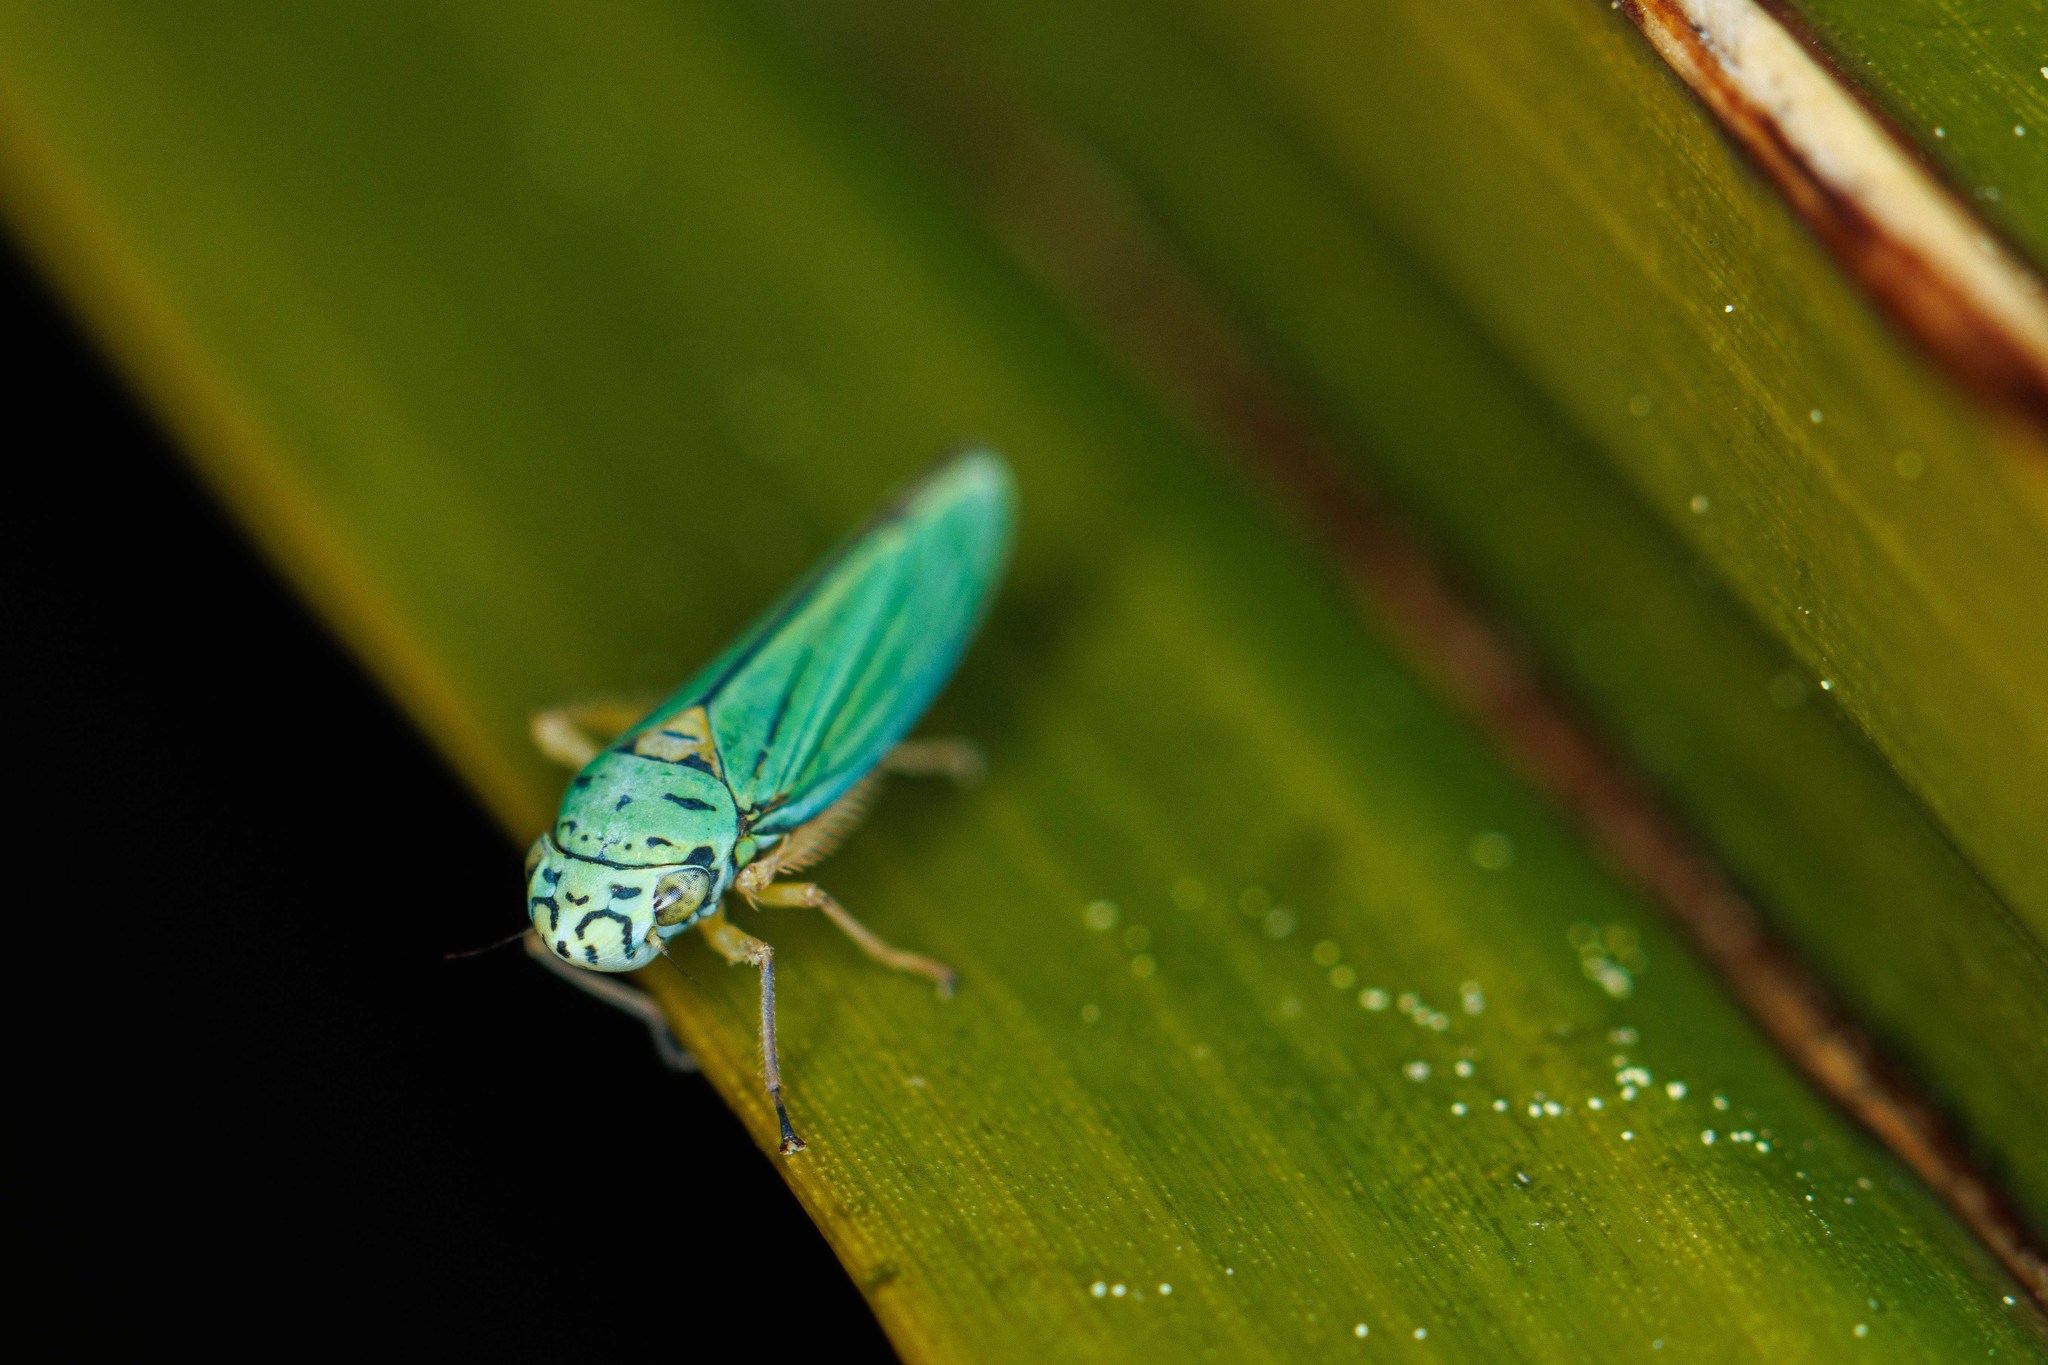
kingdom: Animalia
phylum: Arthropoda
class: Insecta
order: Hemiptera
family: Cicadellidae
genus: Graphocephala
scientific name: Graphocephala atropunctata
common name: Blue-green sharpshooter
